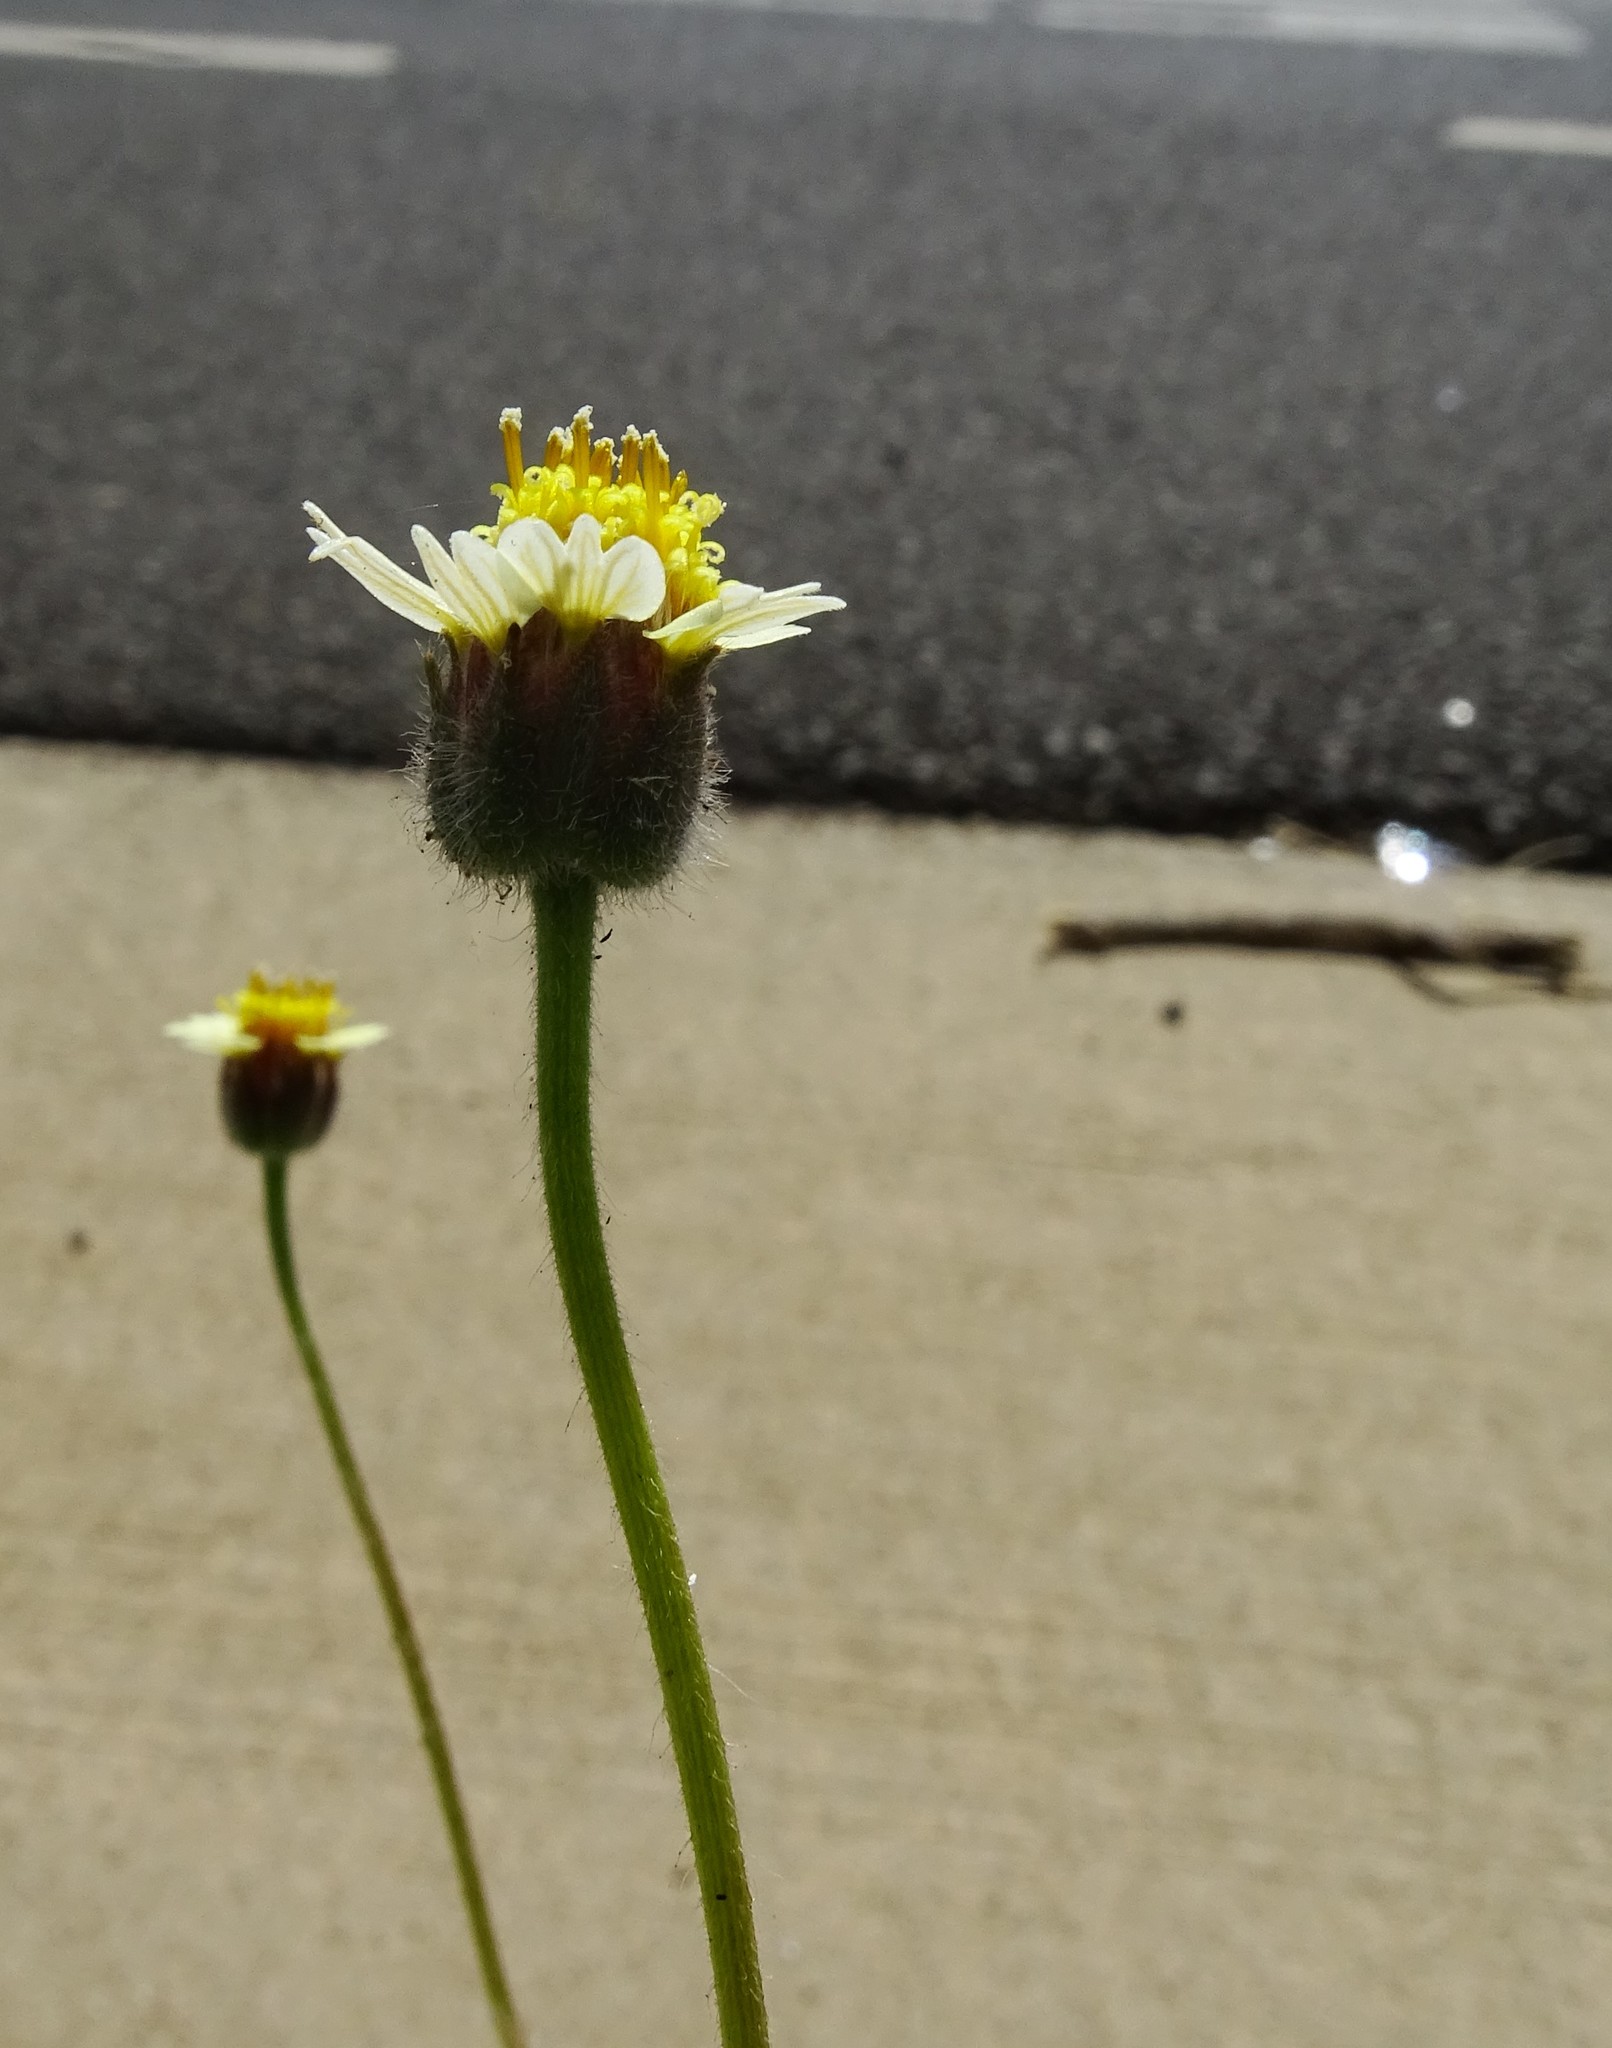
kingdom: Plantae
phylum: Tracheophyta
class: Magnoliopsida
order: Asterales
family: Asteraceae
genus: Tridax
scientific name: Tridax procumbens
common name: Coatbuttons
